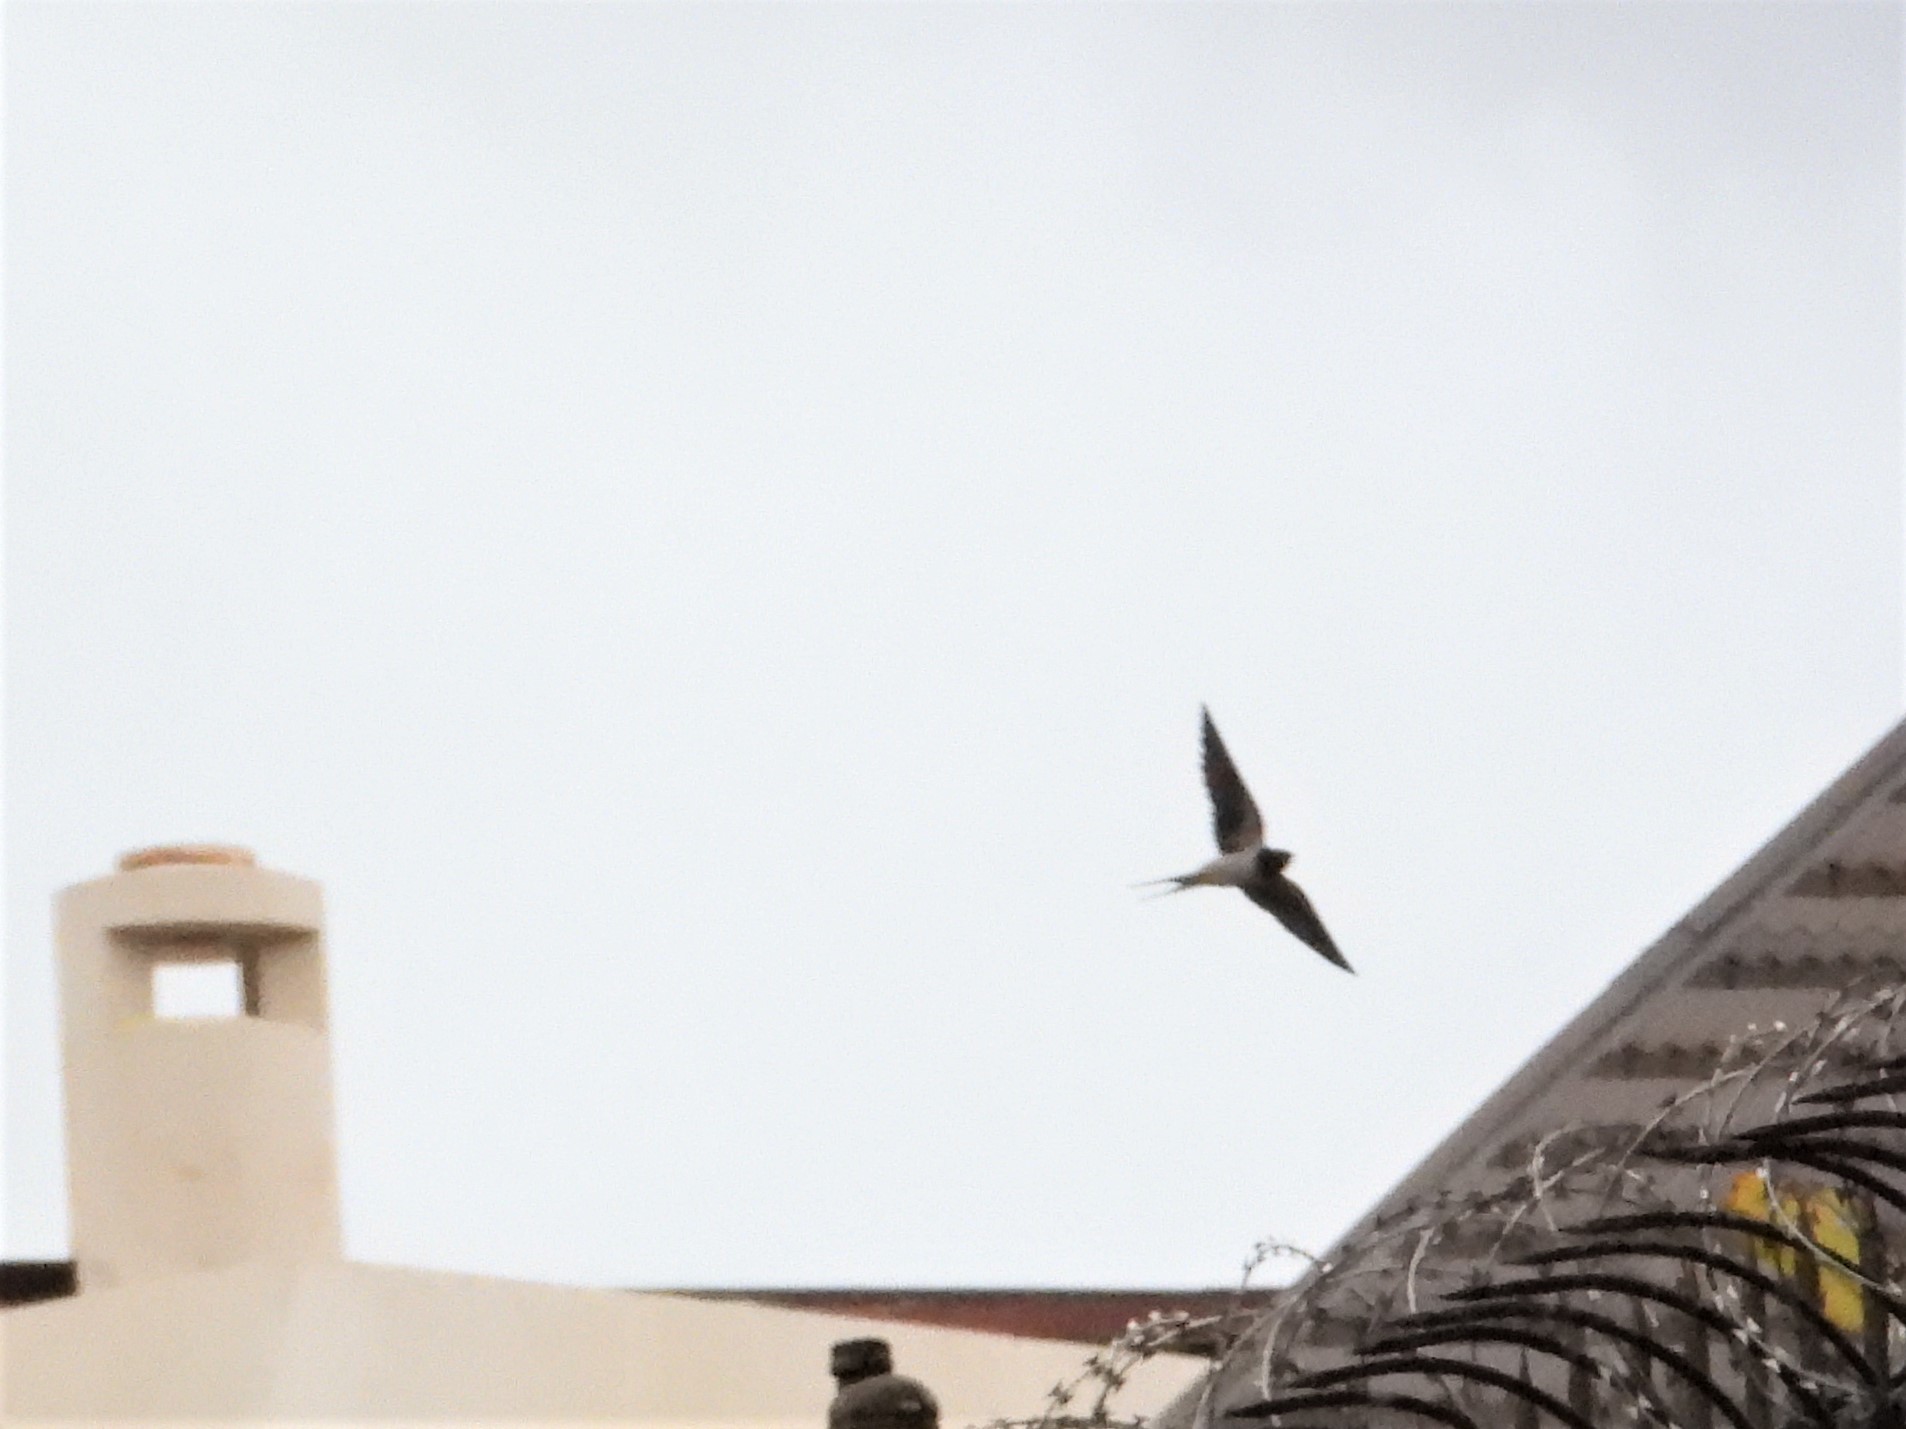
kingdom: Animalia
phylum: Chordata
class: Aves
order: Passeriformes
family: Hirundinidae
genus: Hirundo
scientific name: Hirundo rustica
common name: Barn swallow
